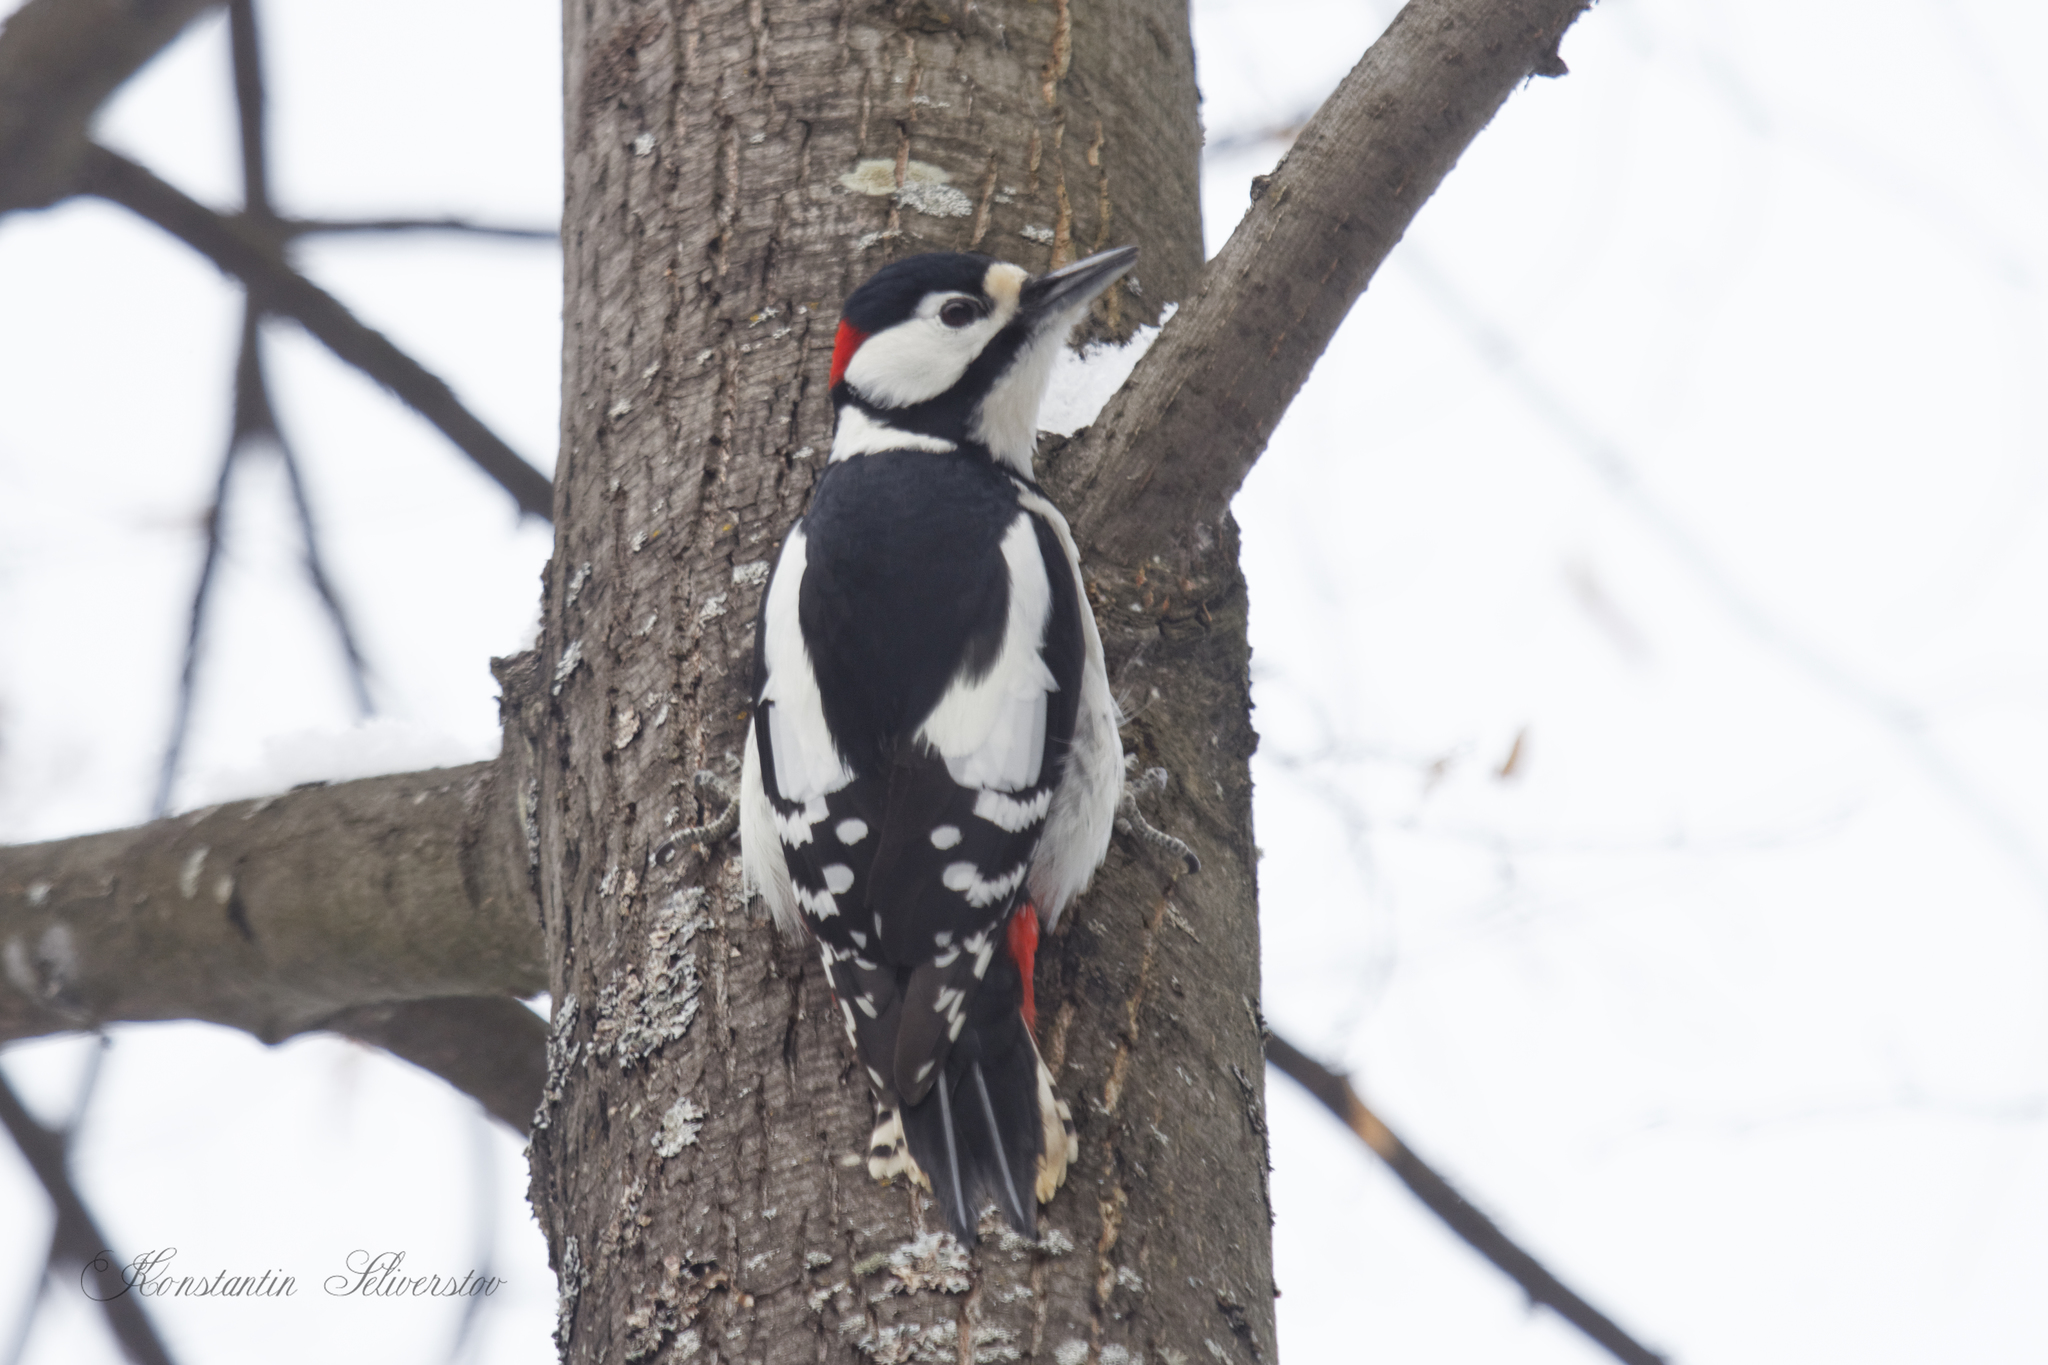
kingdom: Animalia
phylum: Chordata
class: Aves
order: Piciformes
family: Picidae
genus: Dendrocopos
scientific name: Dendrocopos major
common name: Great spotted woodpecker
